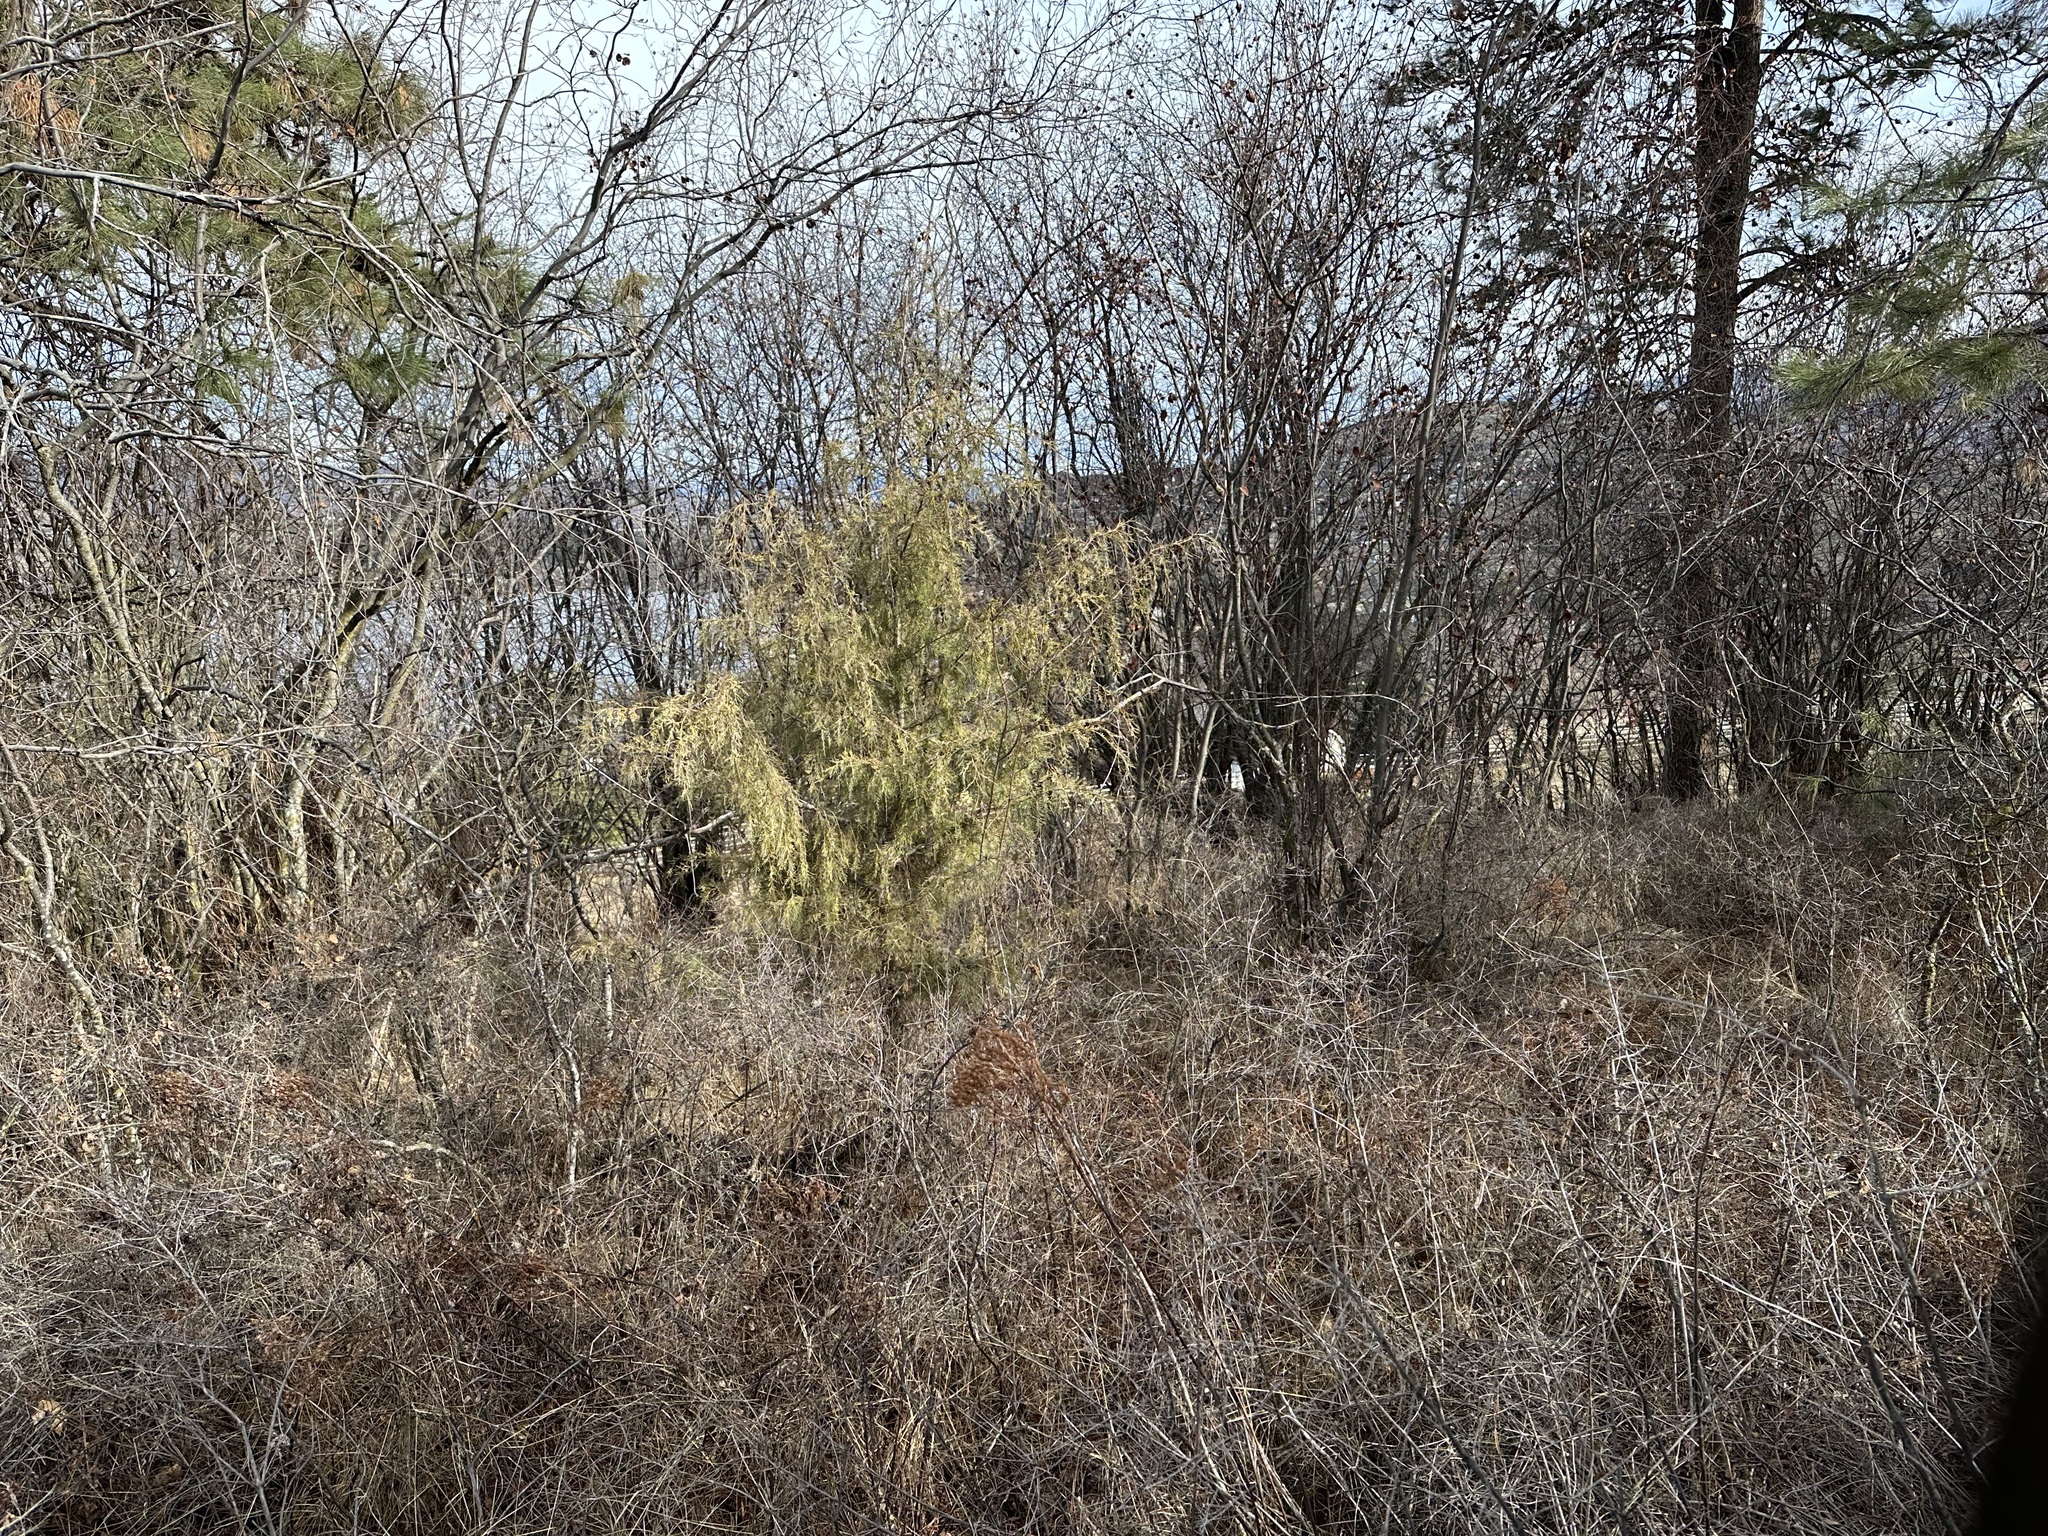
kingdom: Plantae
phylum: Tracheophyta
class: Pinopsida
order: Pinales
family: Cupressaceae
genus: Juniperus
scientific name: Juniperus scopulorum
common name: Rocky mountain juniper
